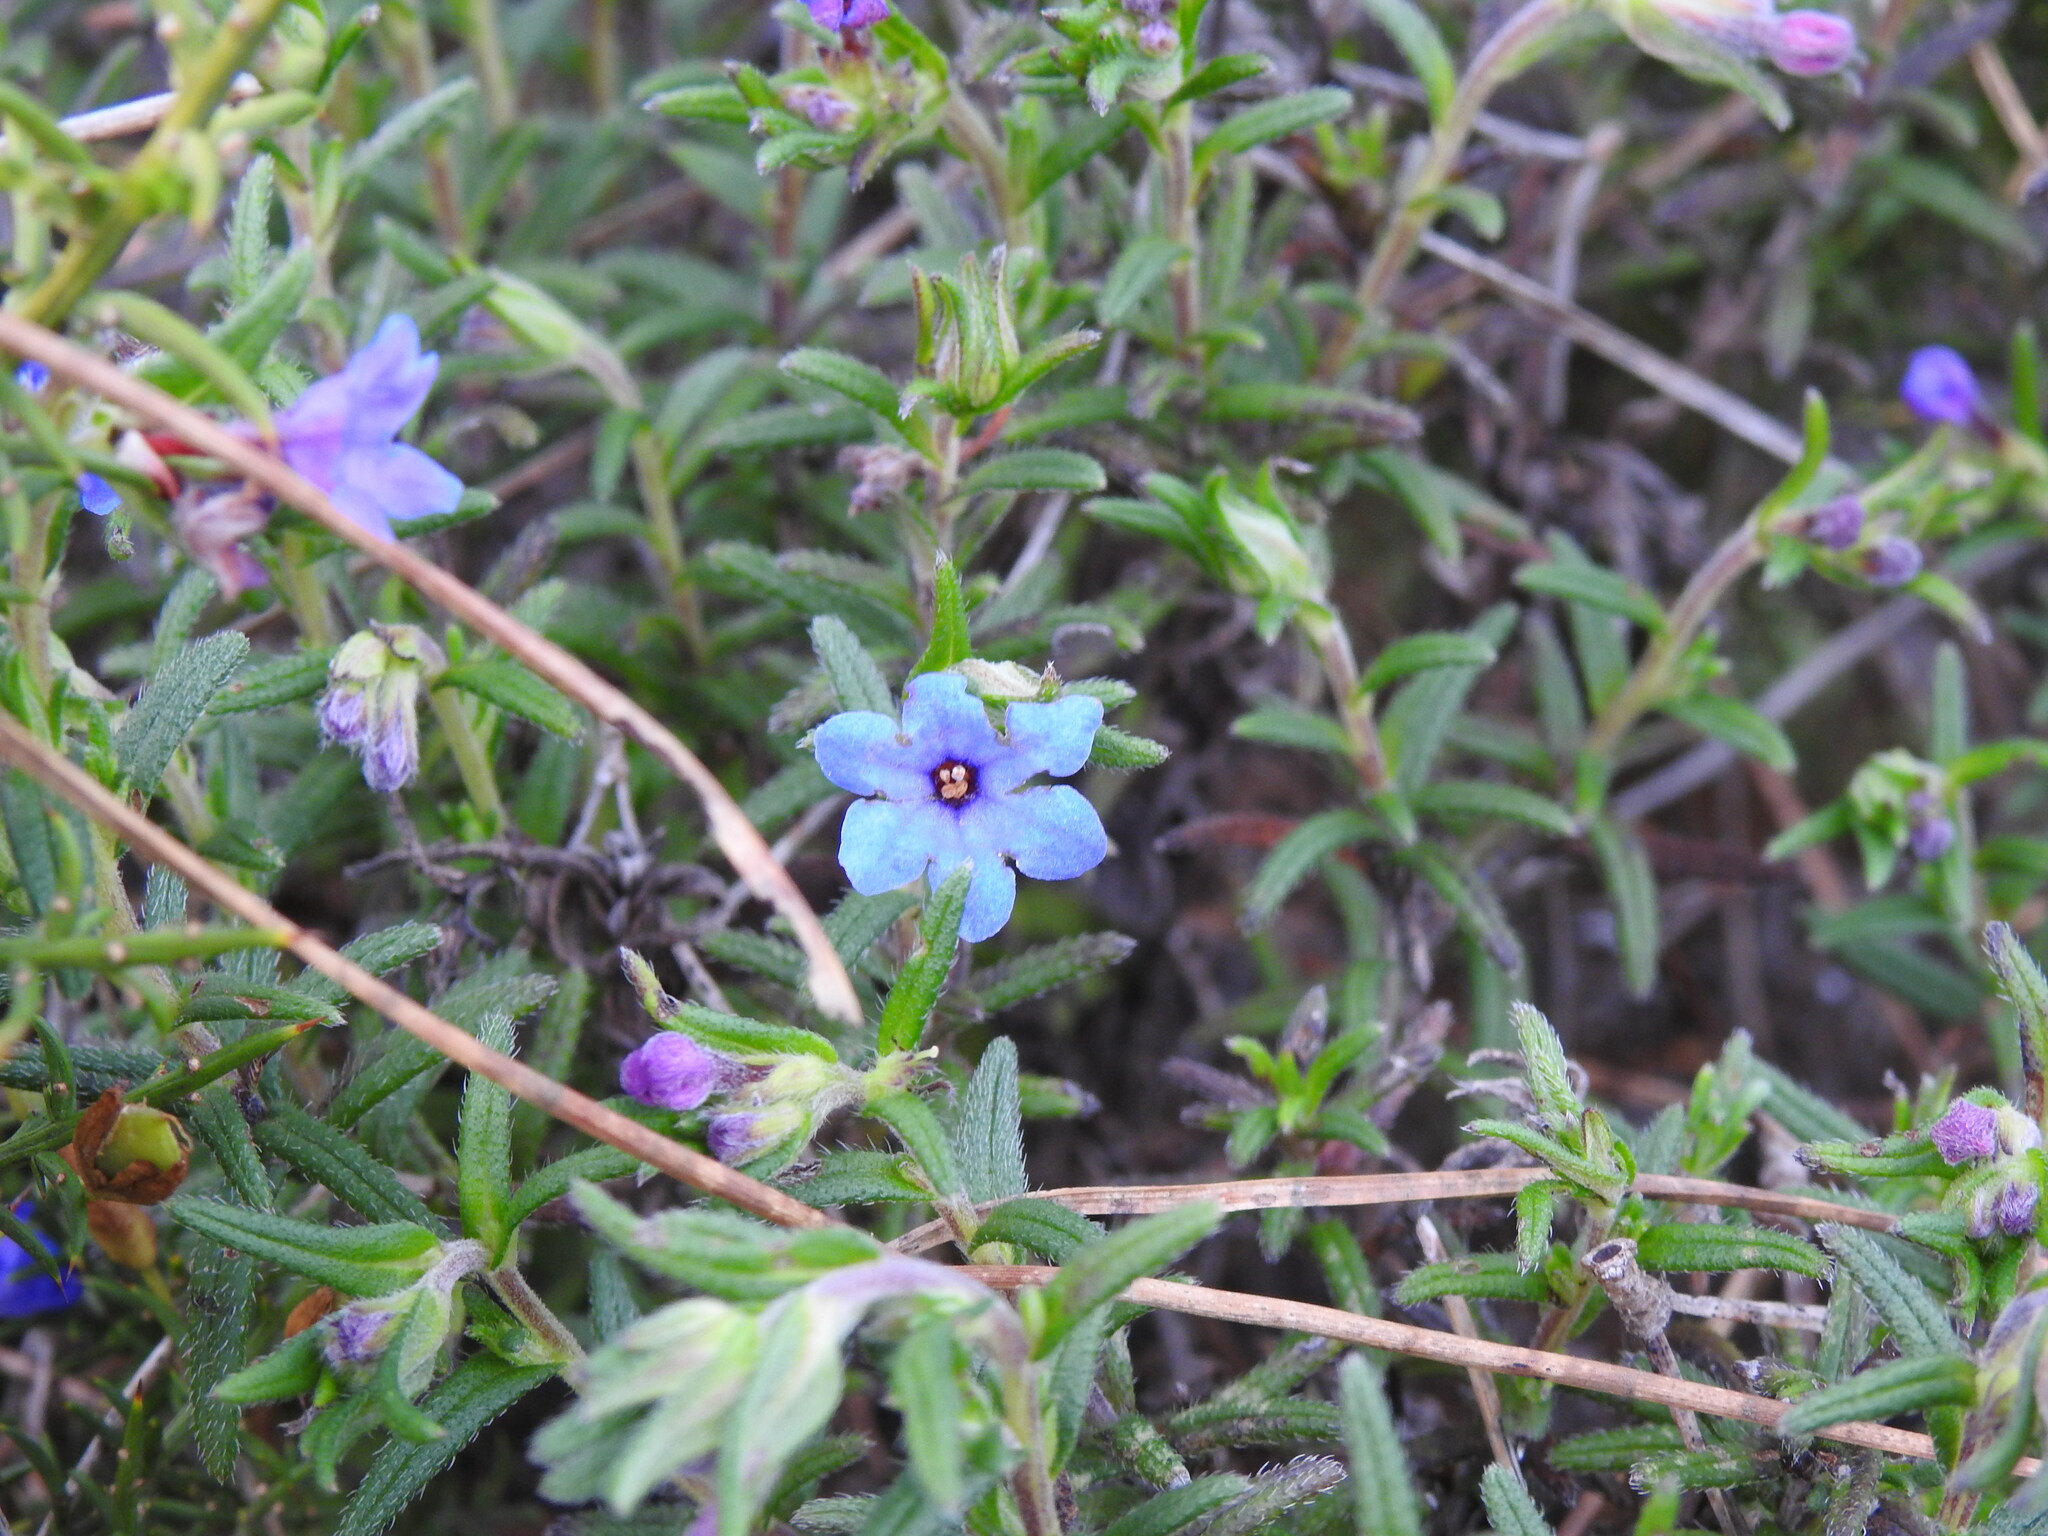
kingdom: Plantae
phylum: Tracheophyta
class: Magnoliopsida
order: Boraginales
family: Boraginaceae
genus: Glandora
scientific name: Glandora prostrata
